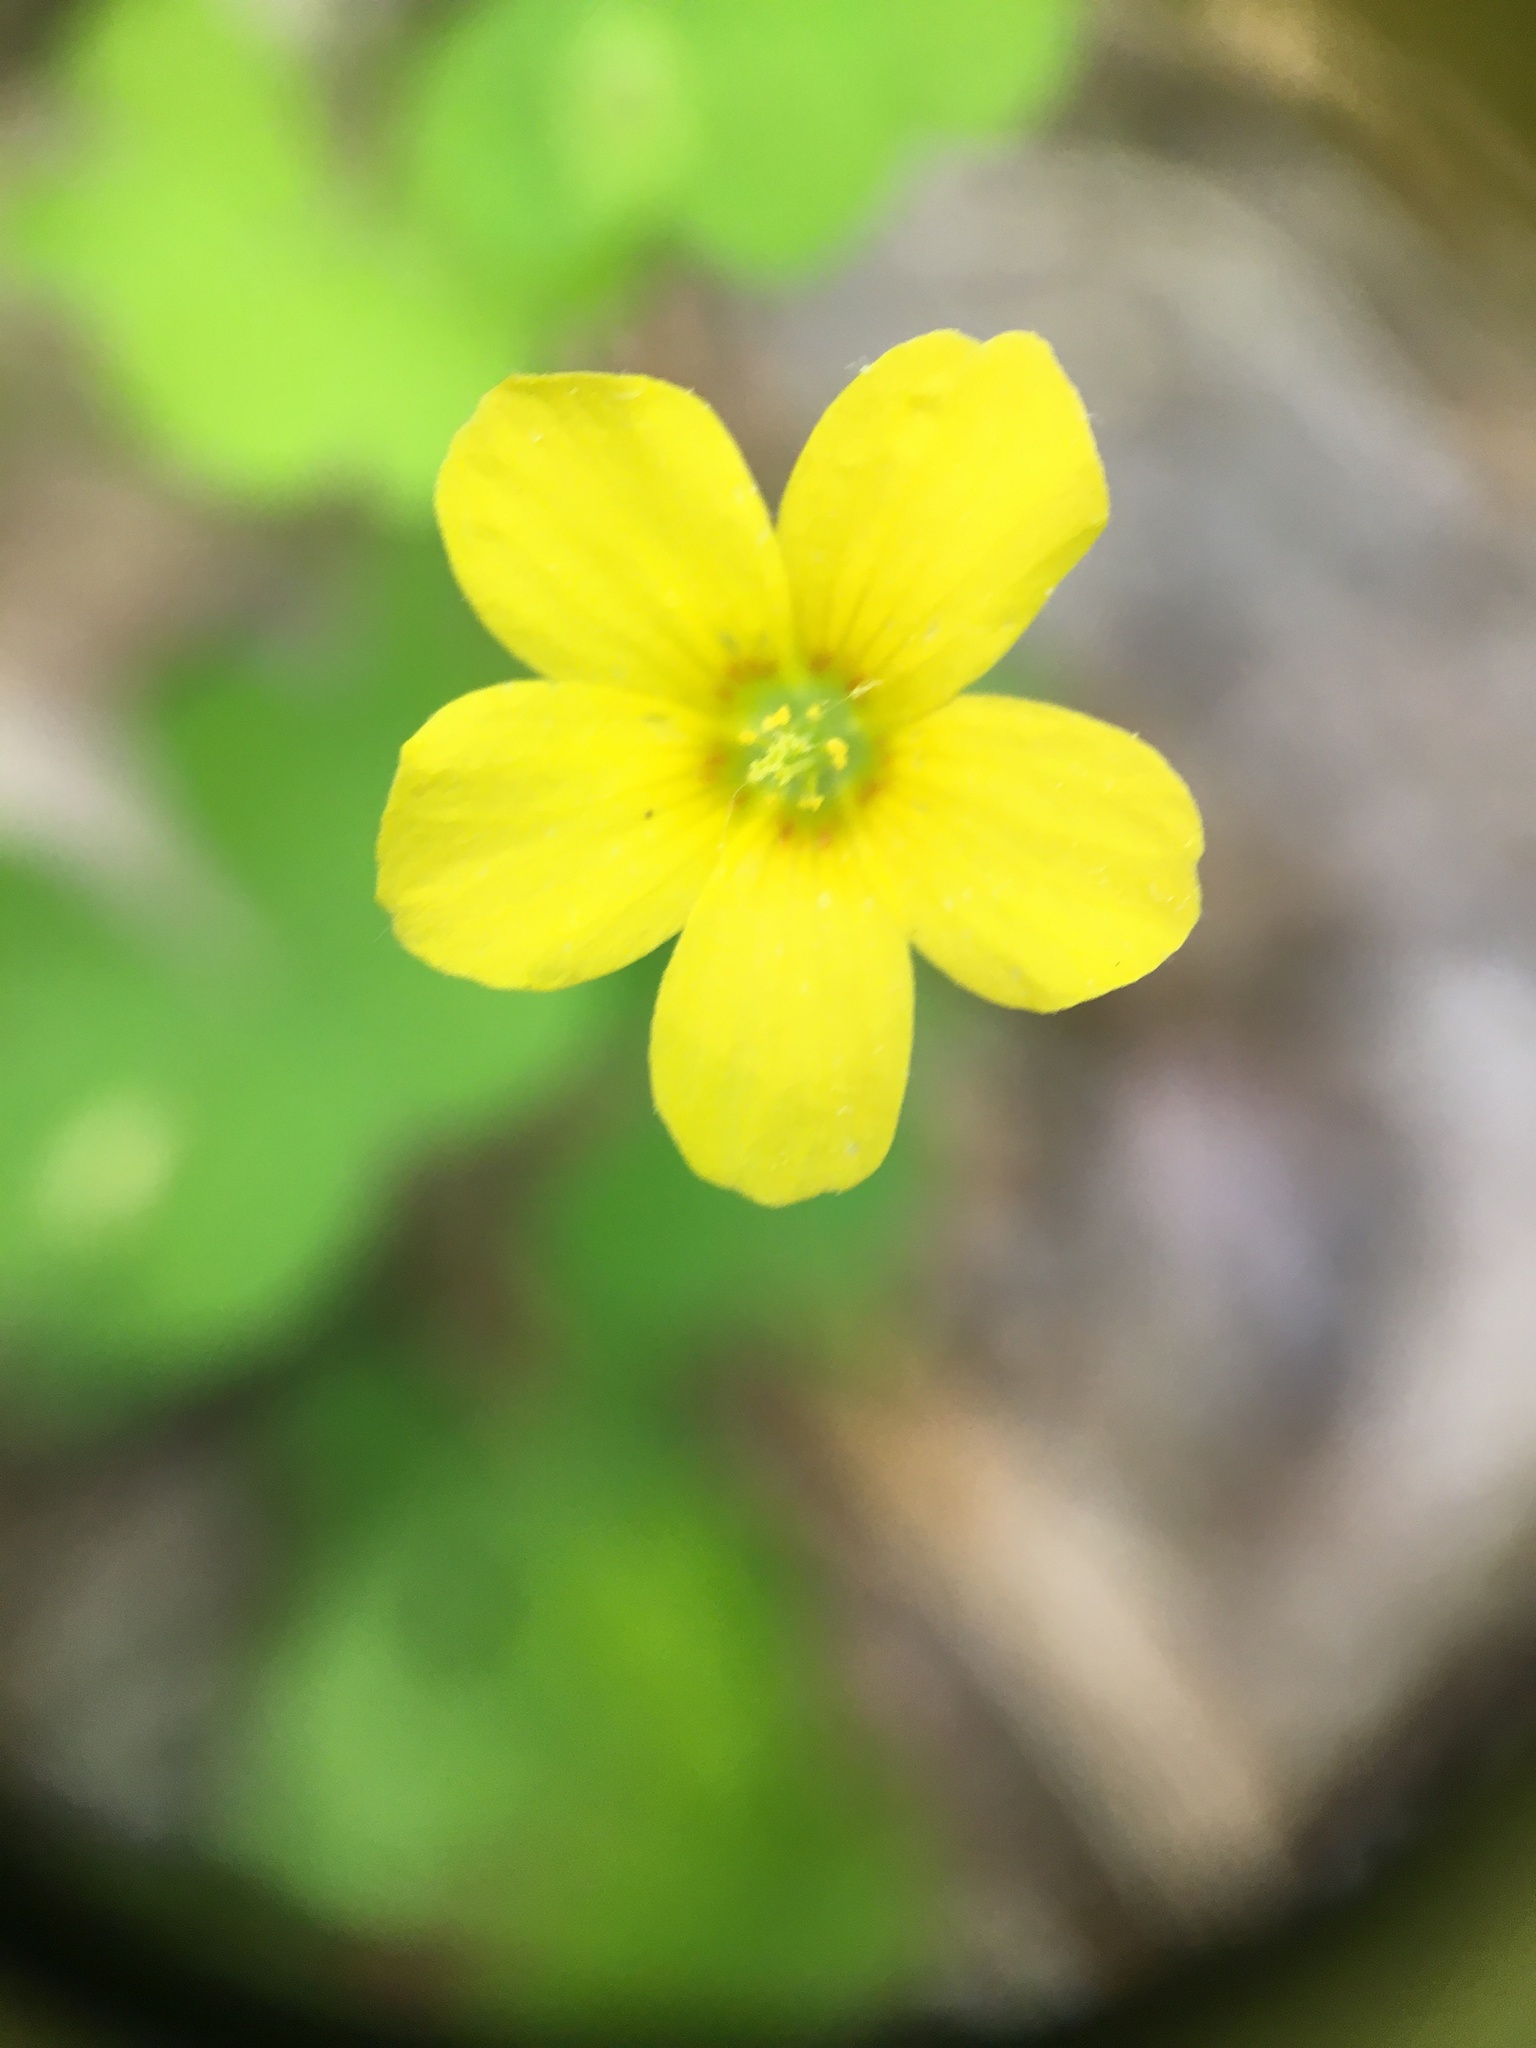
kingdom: Plantae
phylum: Tracheophyta
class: Magnoliopsida
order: Oxalidales
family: Oxalidaceae
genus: Oxalis
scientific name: Oxalis stricta
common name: Upright yellow-sorrel
